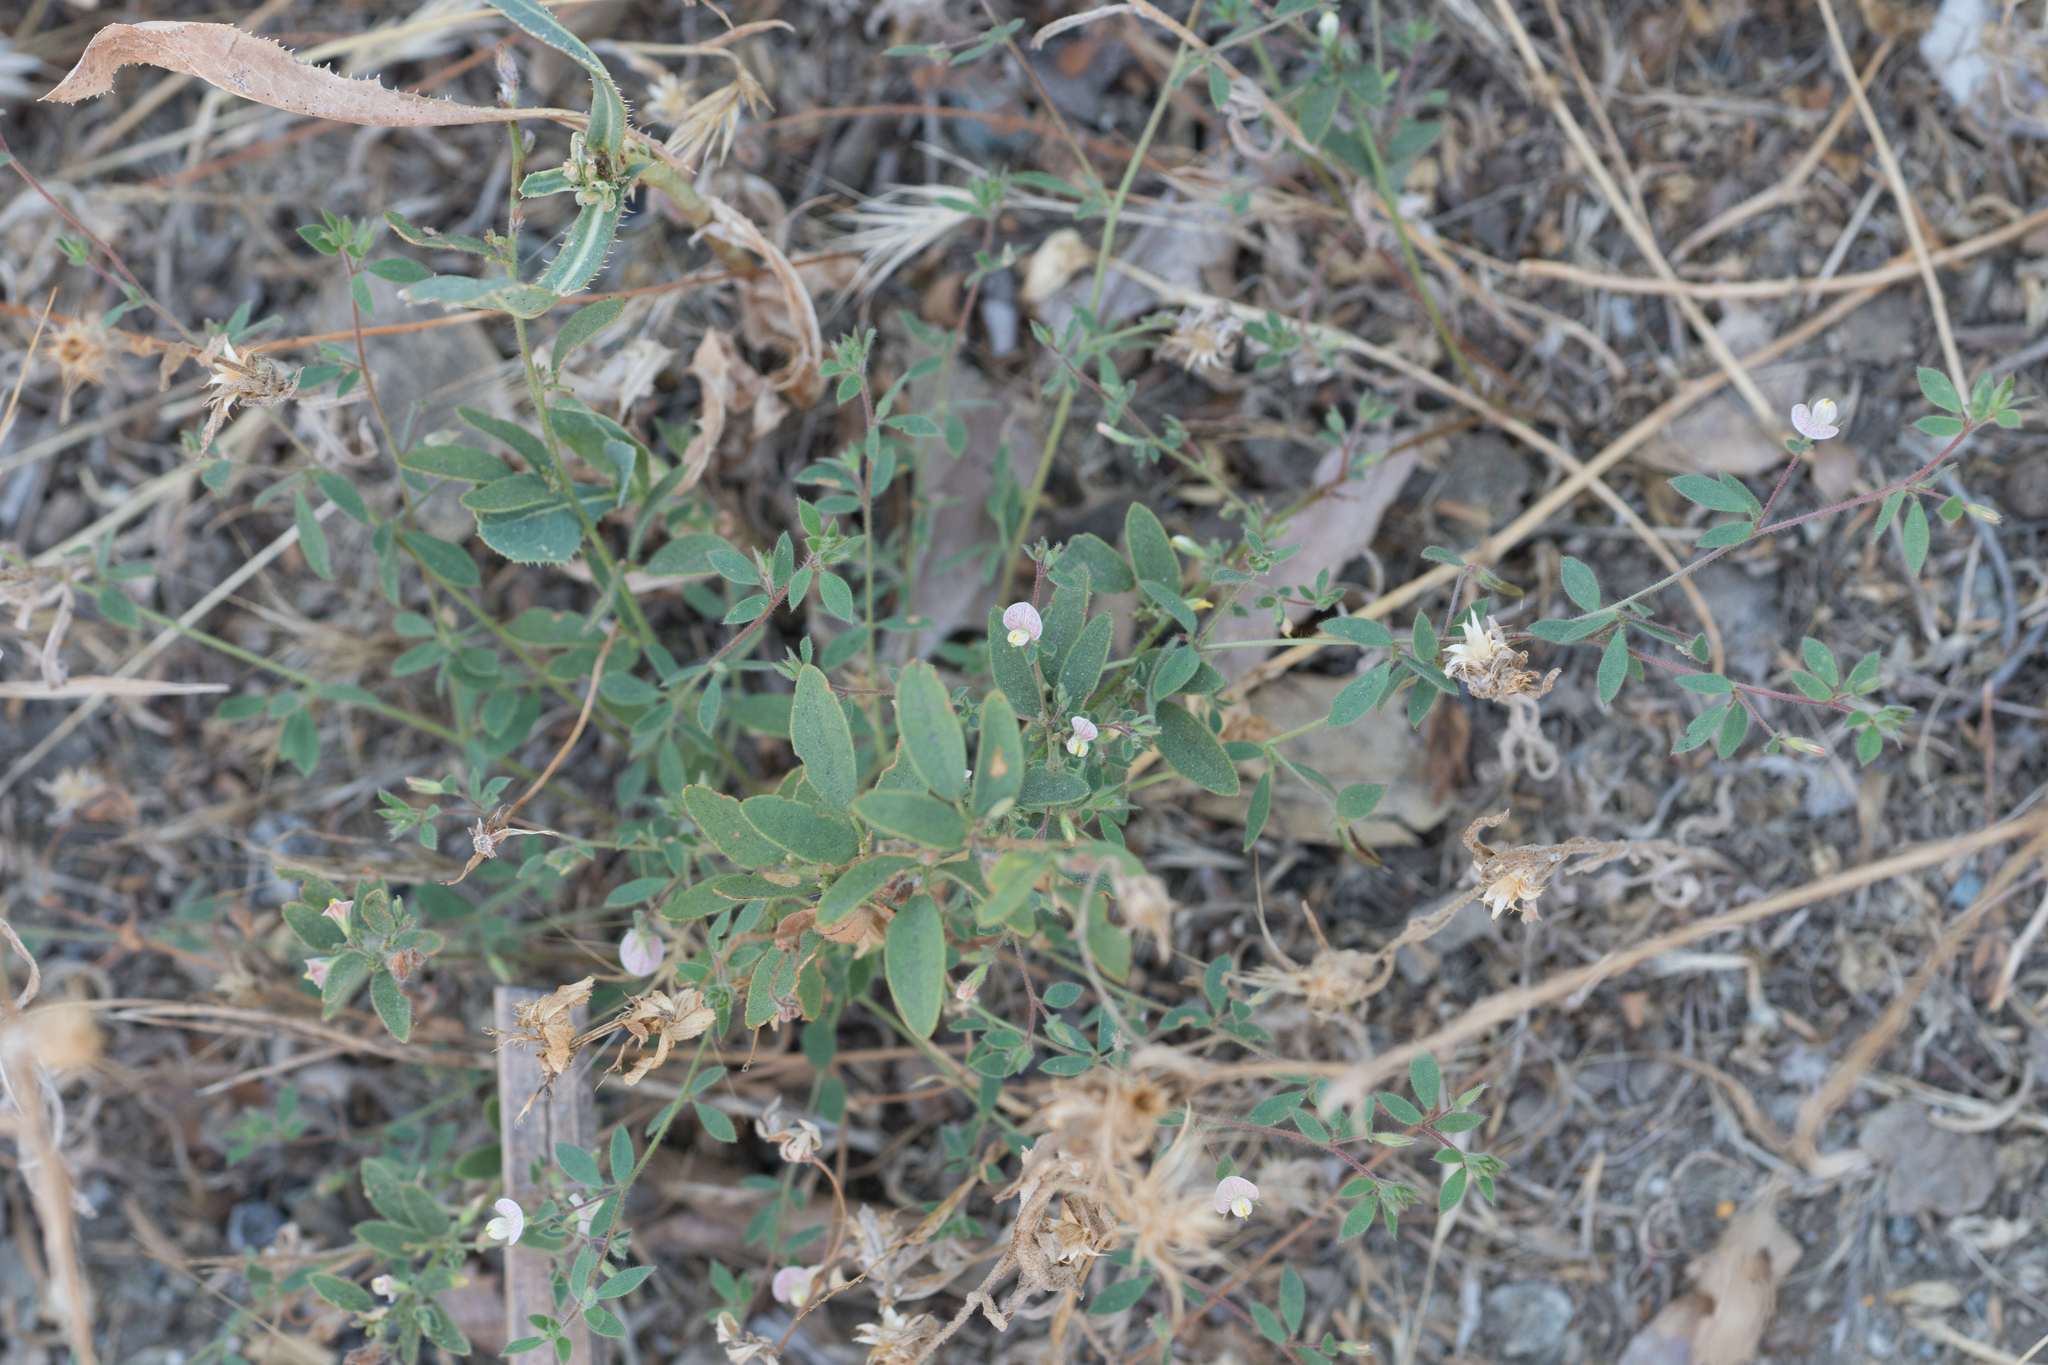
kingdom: Plantae
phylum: Tracheophyta
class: Magnoliopsida
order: Fabales
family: Fabaceae
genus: Acmispon
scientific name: Acmispon americanus
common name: American bird's-foot trefoil
